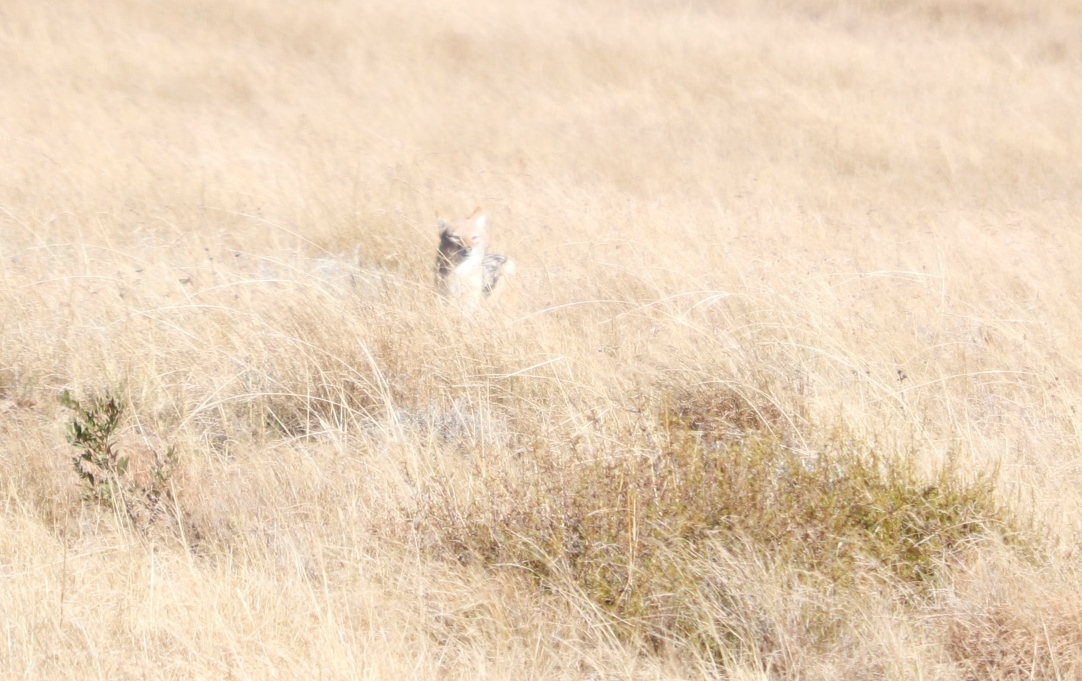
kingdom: Animalia
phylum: Chordata
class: Mammalia
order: Carnivora
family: Canidae
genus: Lupulella
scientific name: Lupulella
